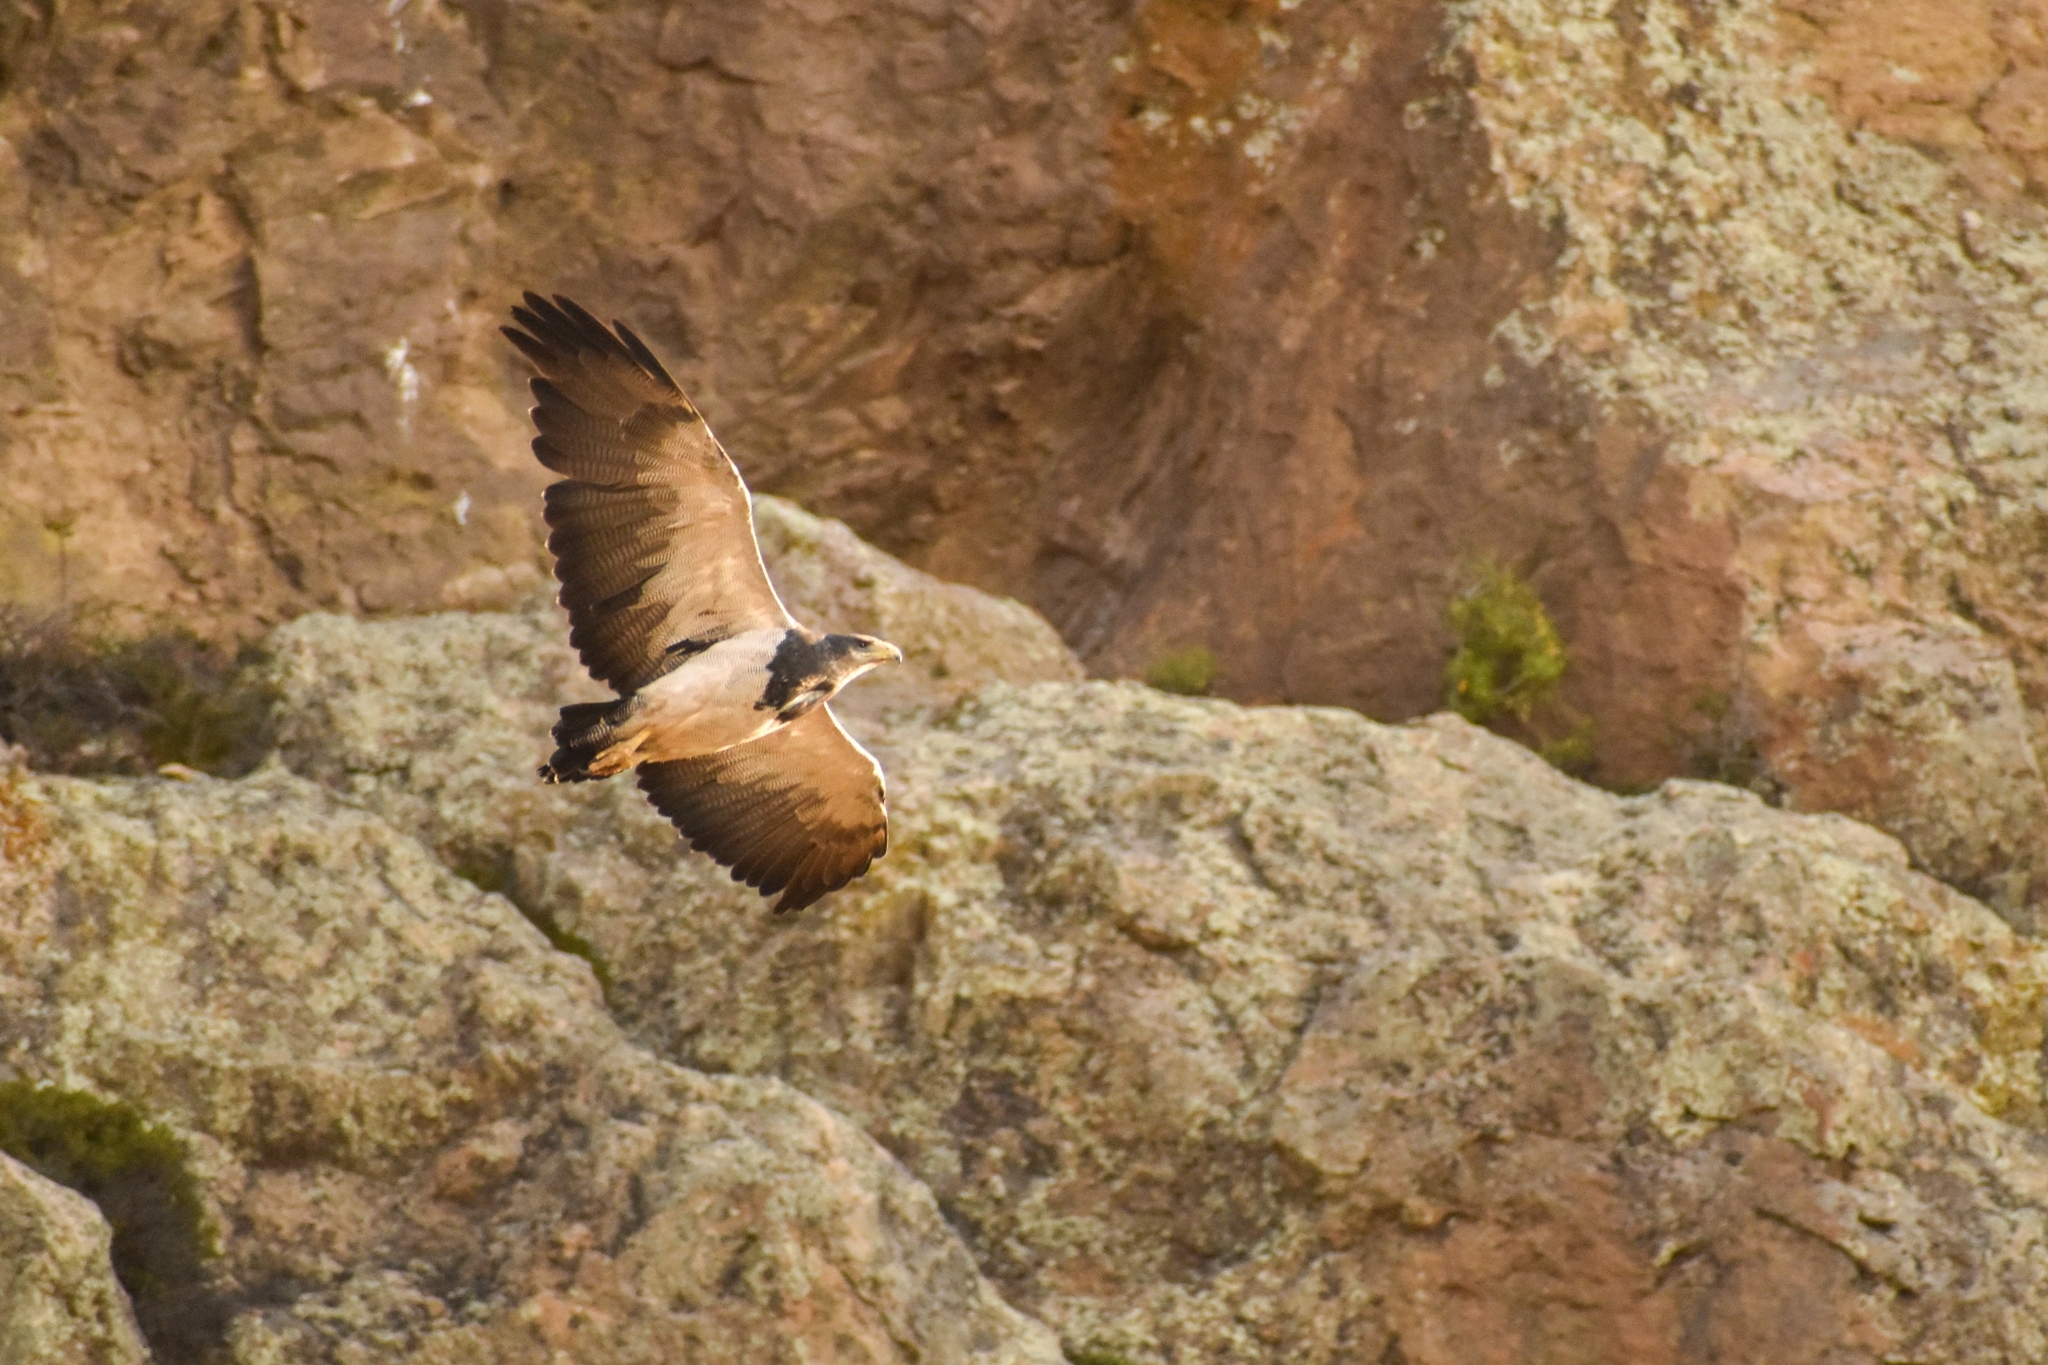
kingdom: Animalia
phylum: Chordata
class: Aves
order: Accipitriformes
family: Accipitridae
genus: Geranoaetus
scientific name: Geranoaetus melanoleucus
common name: Black-chested buzzard-eagle
